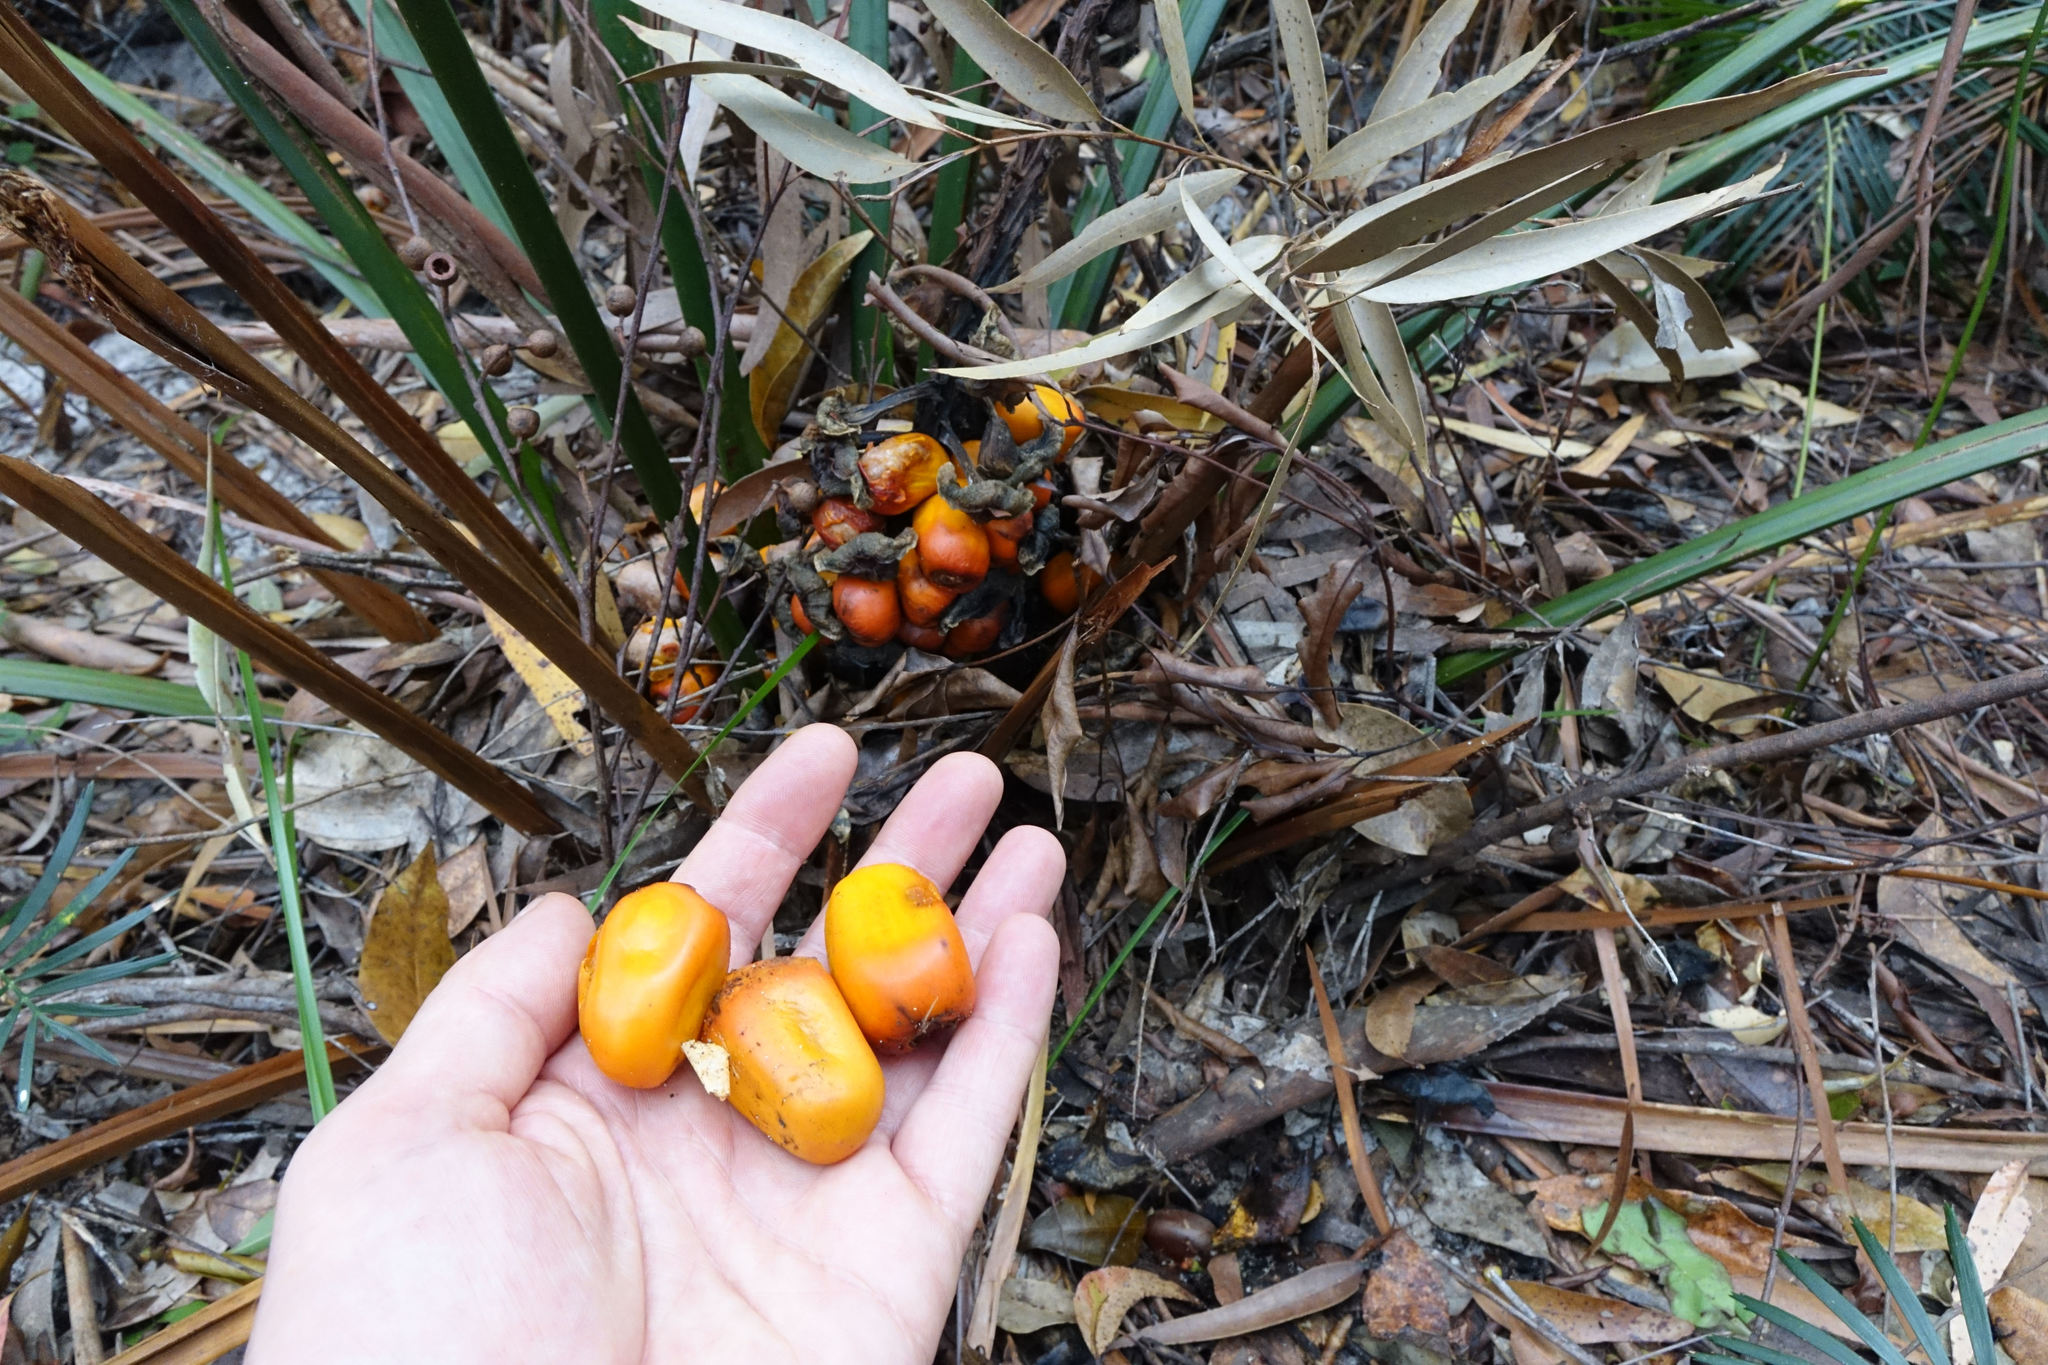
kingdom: Plantae
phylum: Tracheophyta
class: Cycadopsida
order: Cycadales
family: Zamiaceae
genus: Macrozamia
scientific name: Macrozamia douglasii
